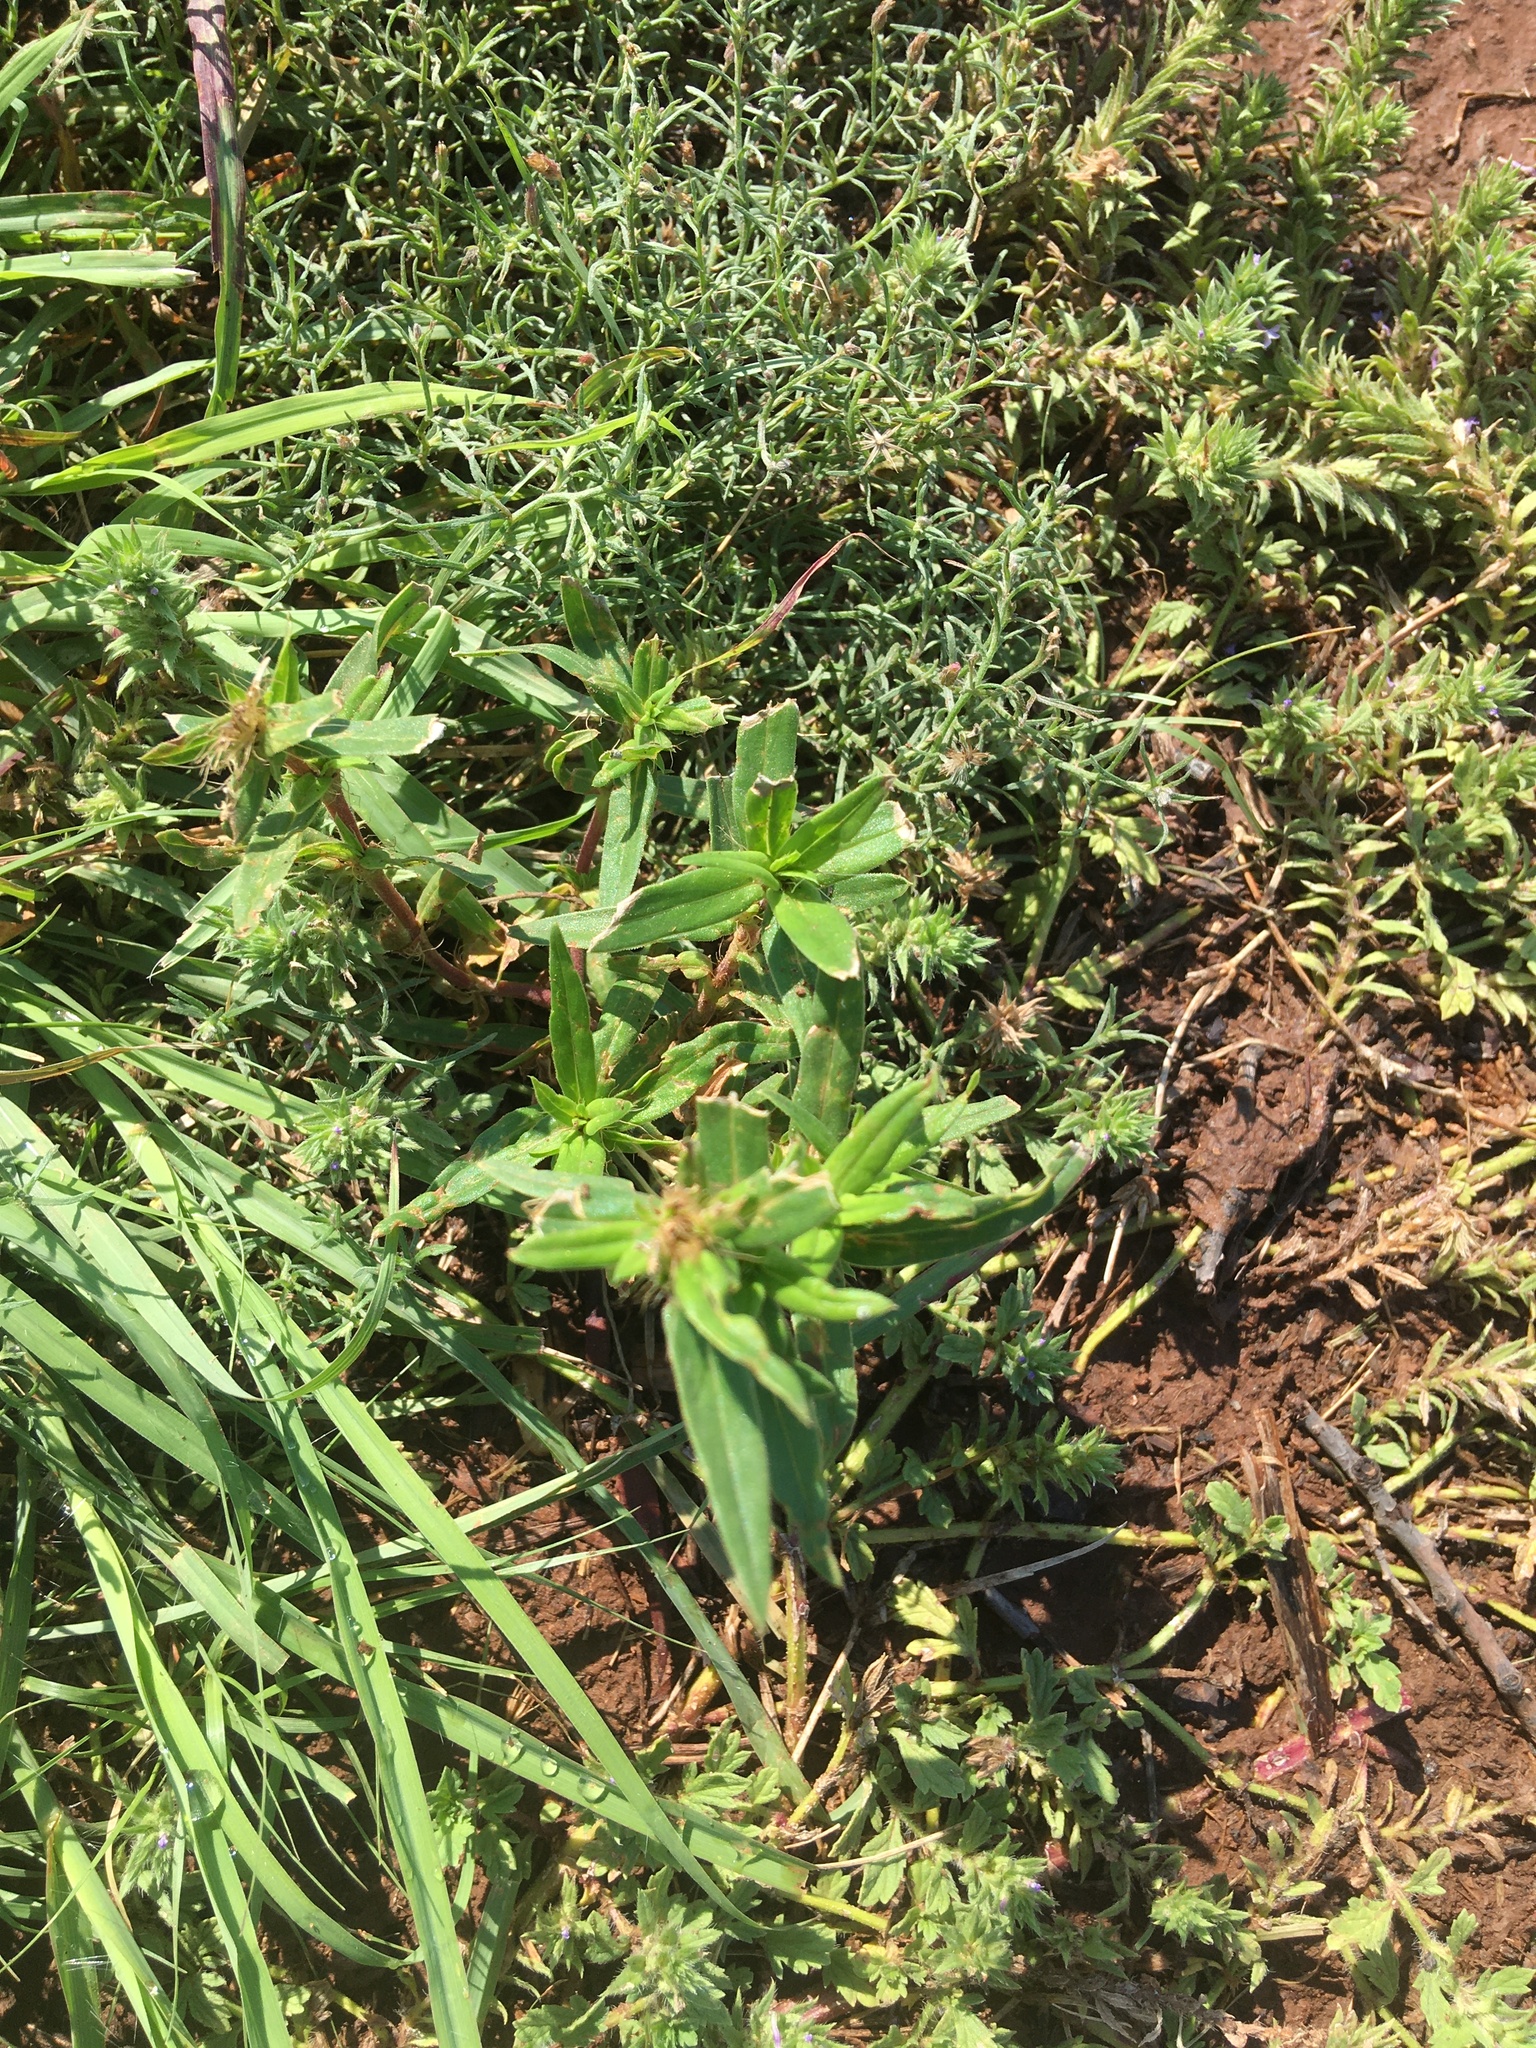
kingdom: Plantae
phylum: Tracheophyta
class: Magnoliopsida
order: Gentianales
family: Rubiaceae
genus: Hexasepalum
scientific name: Hexasepalum teres
